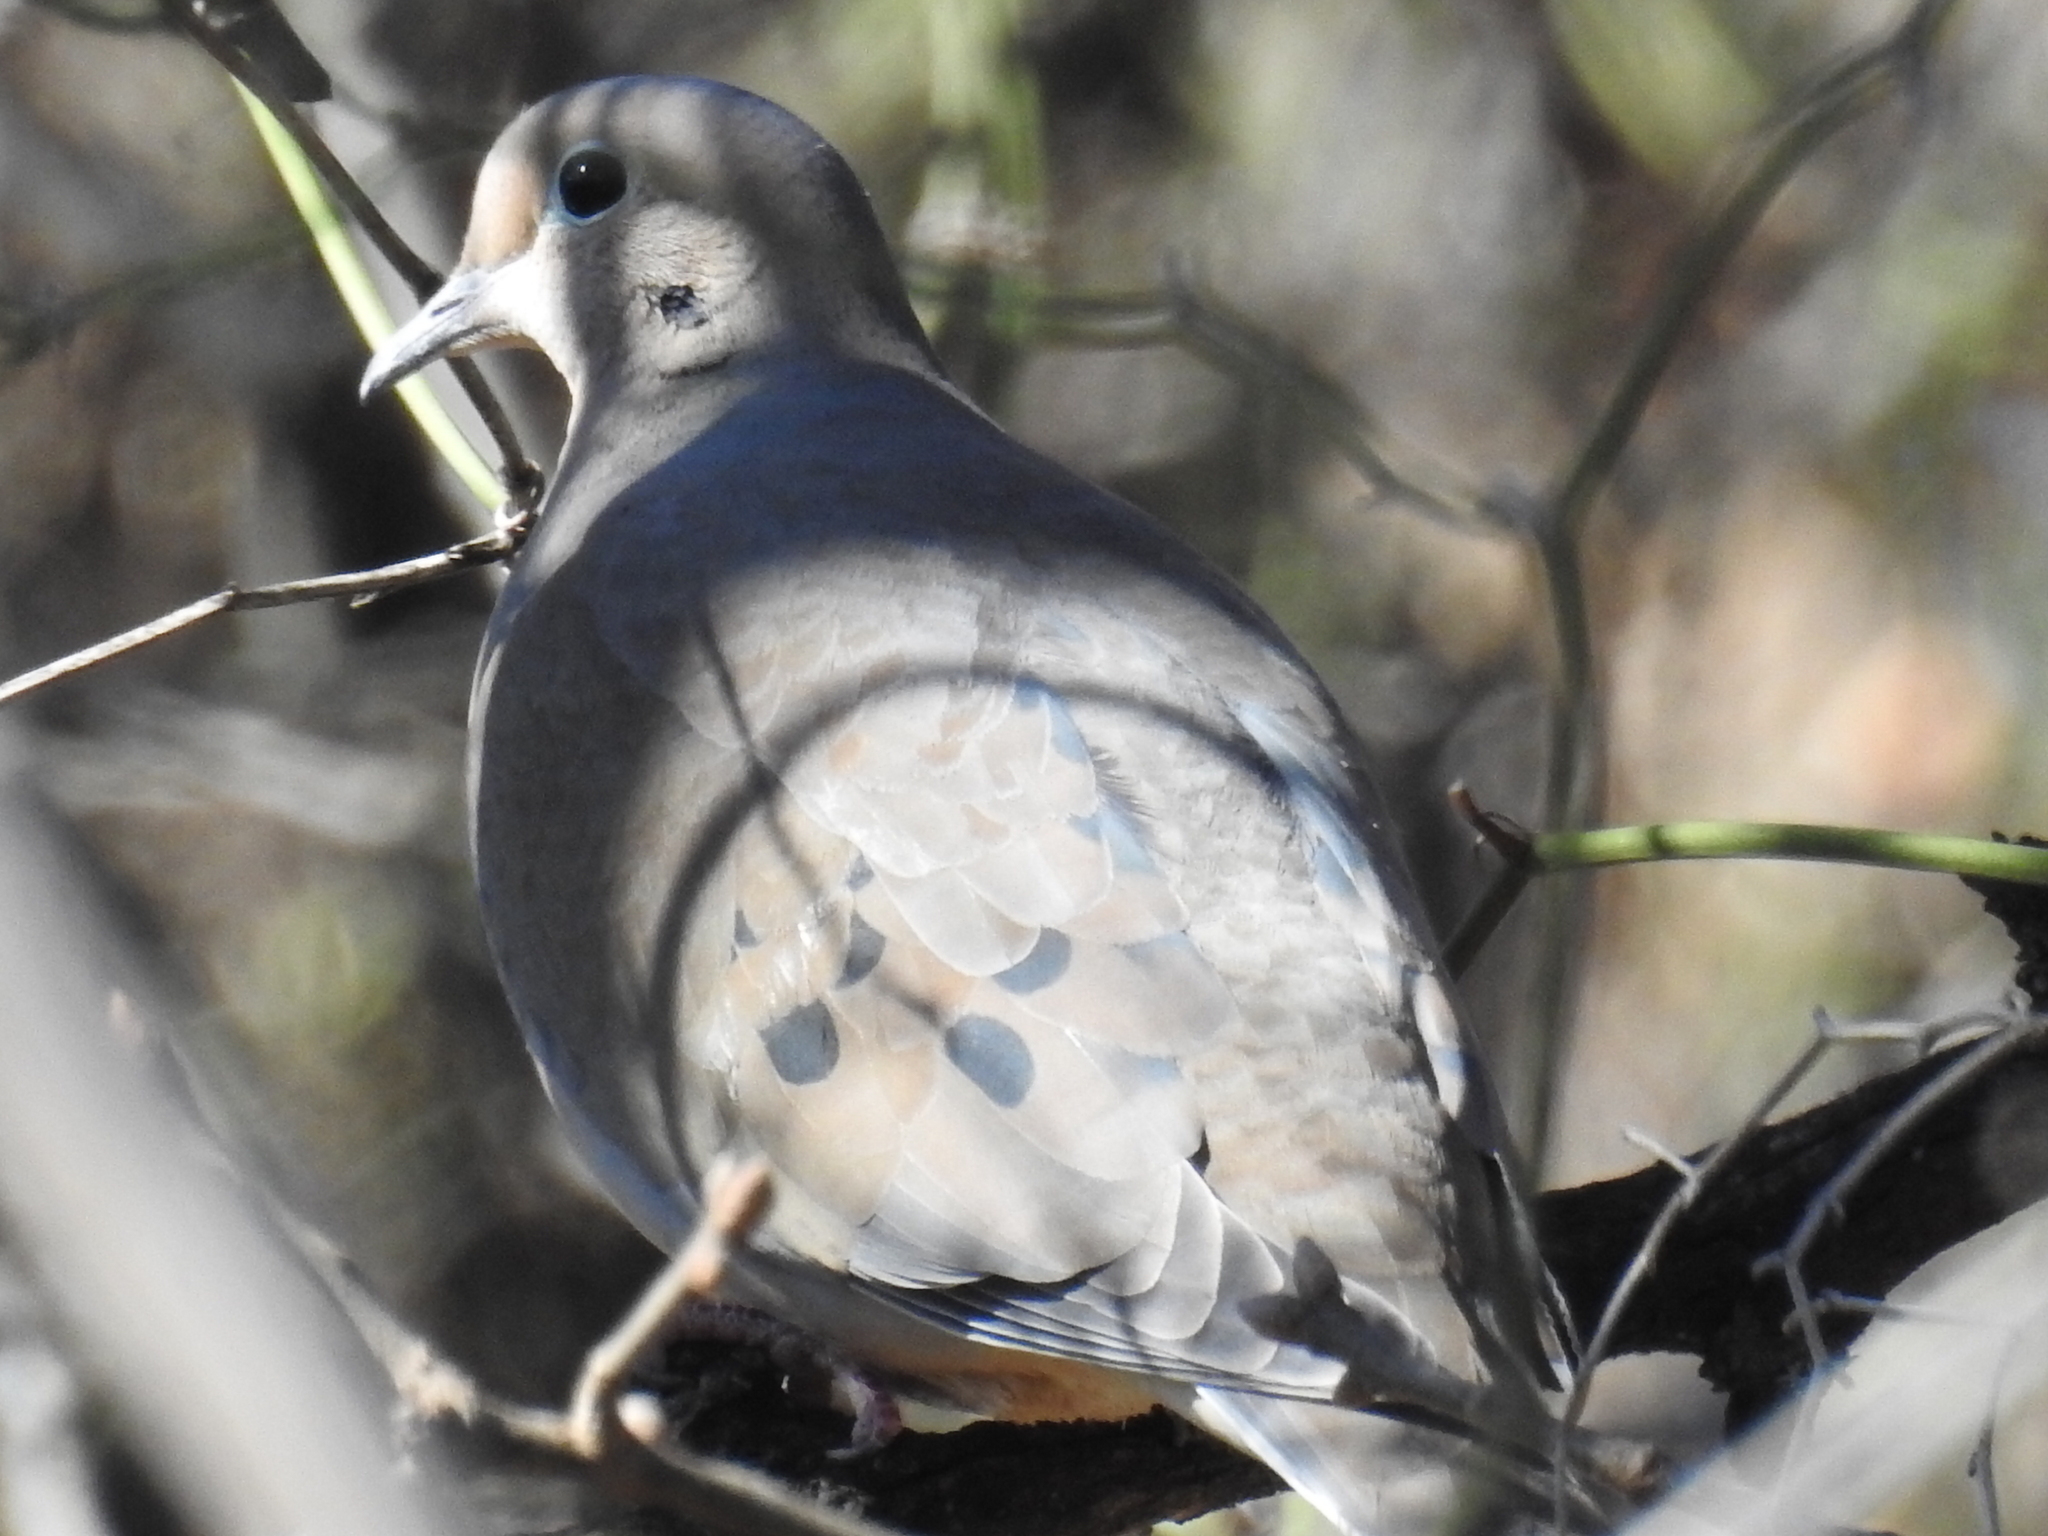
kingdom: Animalia
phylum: Chordata
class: Aves
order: Columbiformes
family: Columbidae
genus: Zenaida
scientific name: Zenaida macroura
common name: Mourning dove
